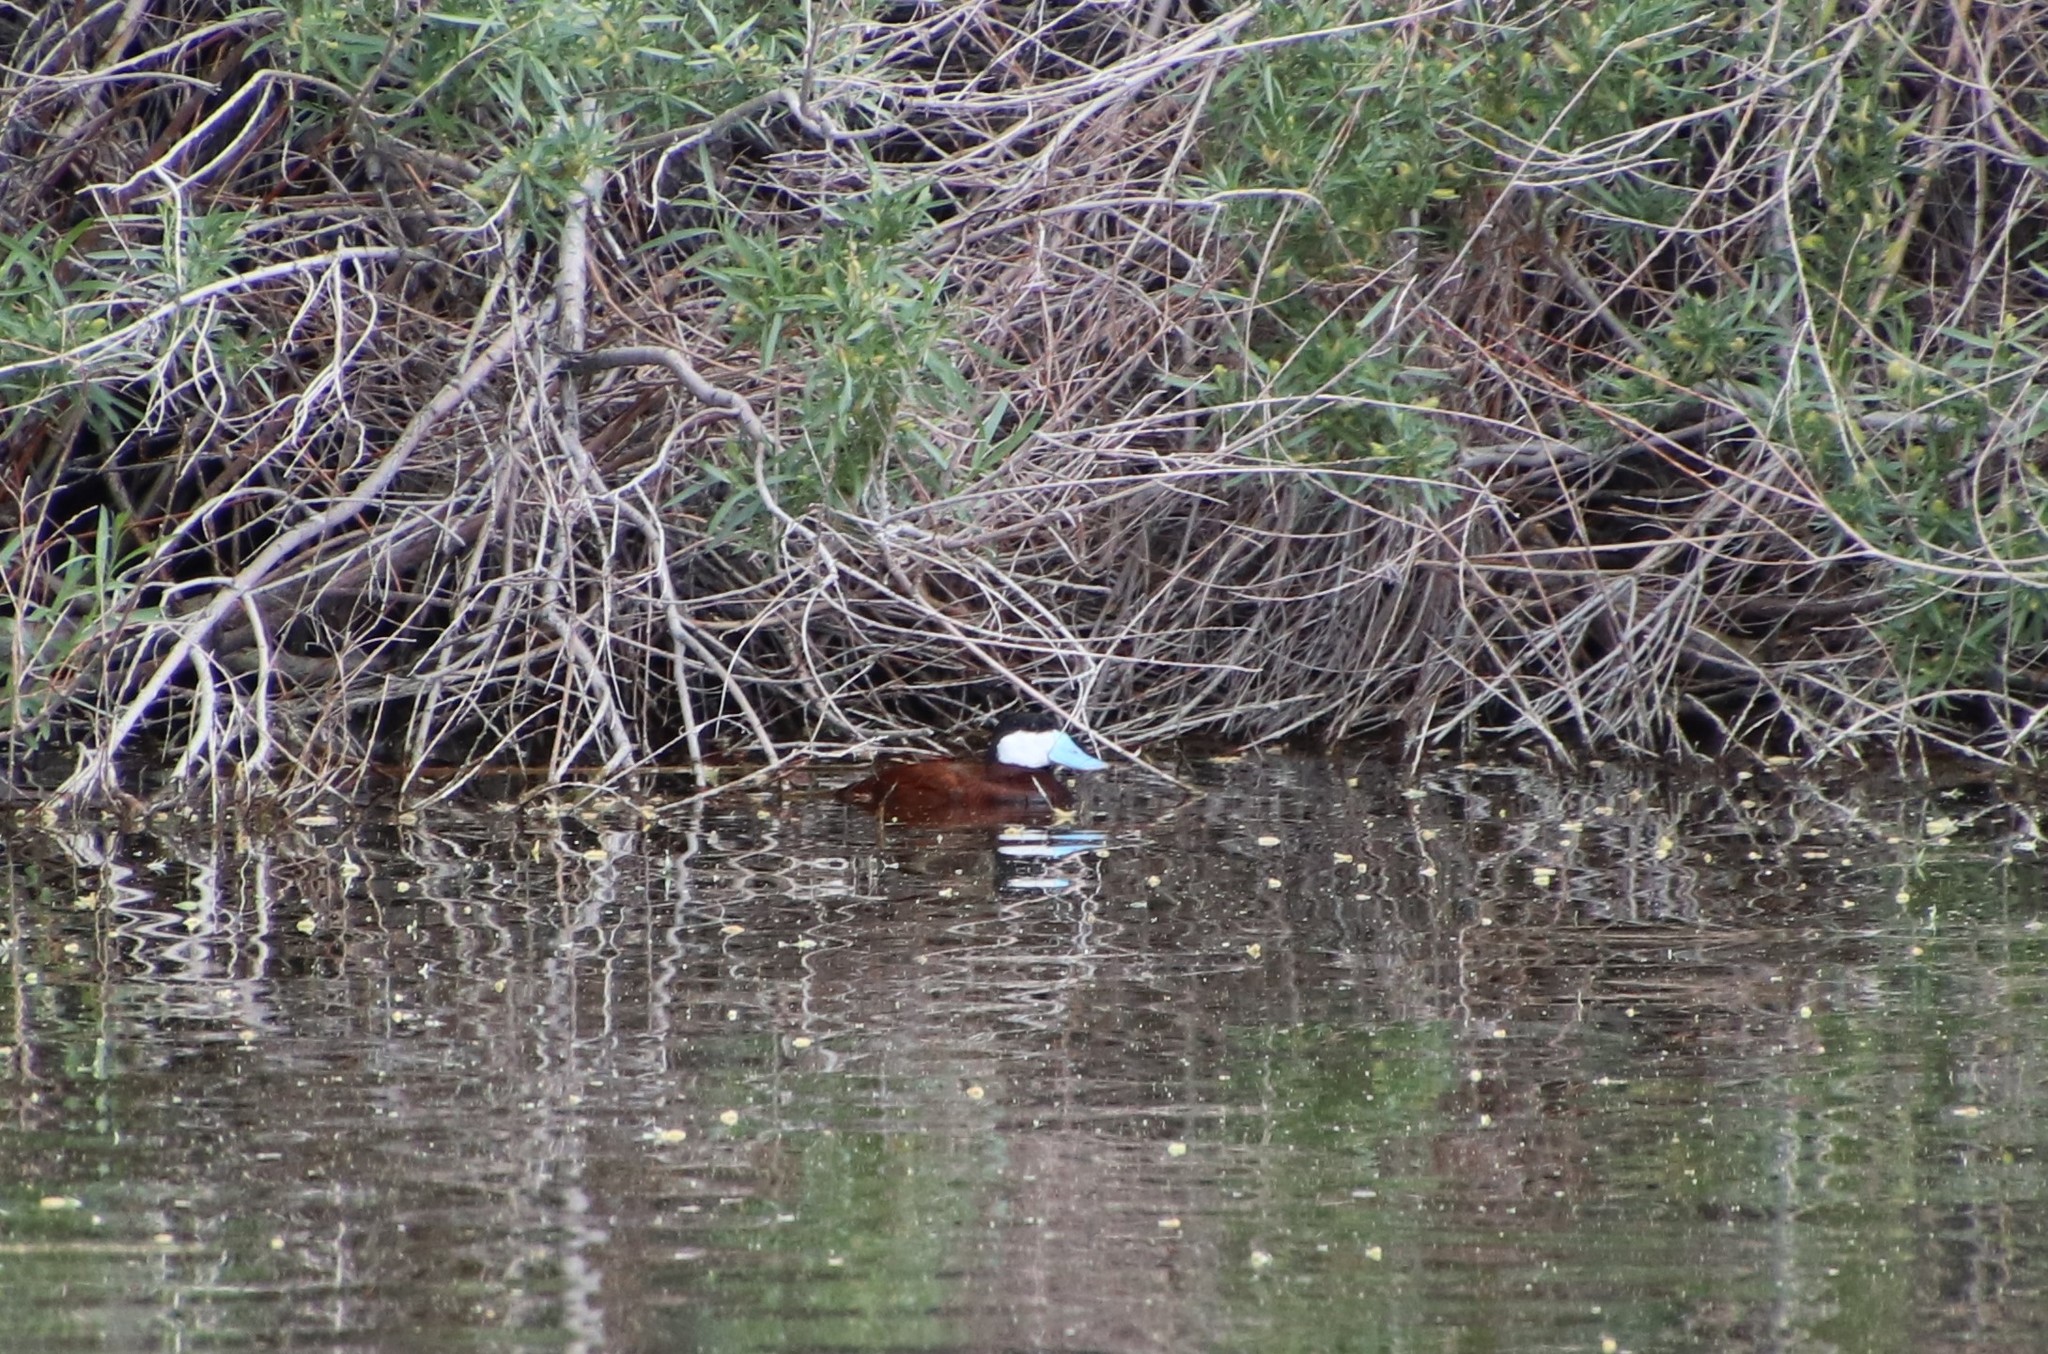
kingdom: Animalia
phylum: Chordata
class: Aves
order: Anseriformes
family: Anatidae
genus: Oxyura
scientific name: Oxyura jamaicensis
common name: Ruddy duck
